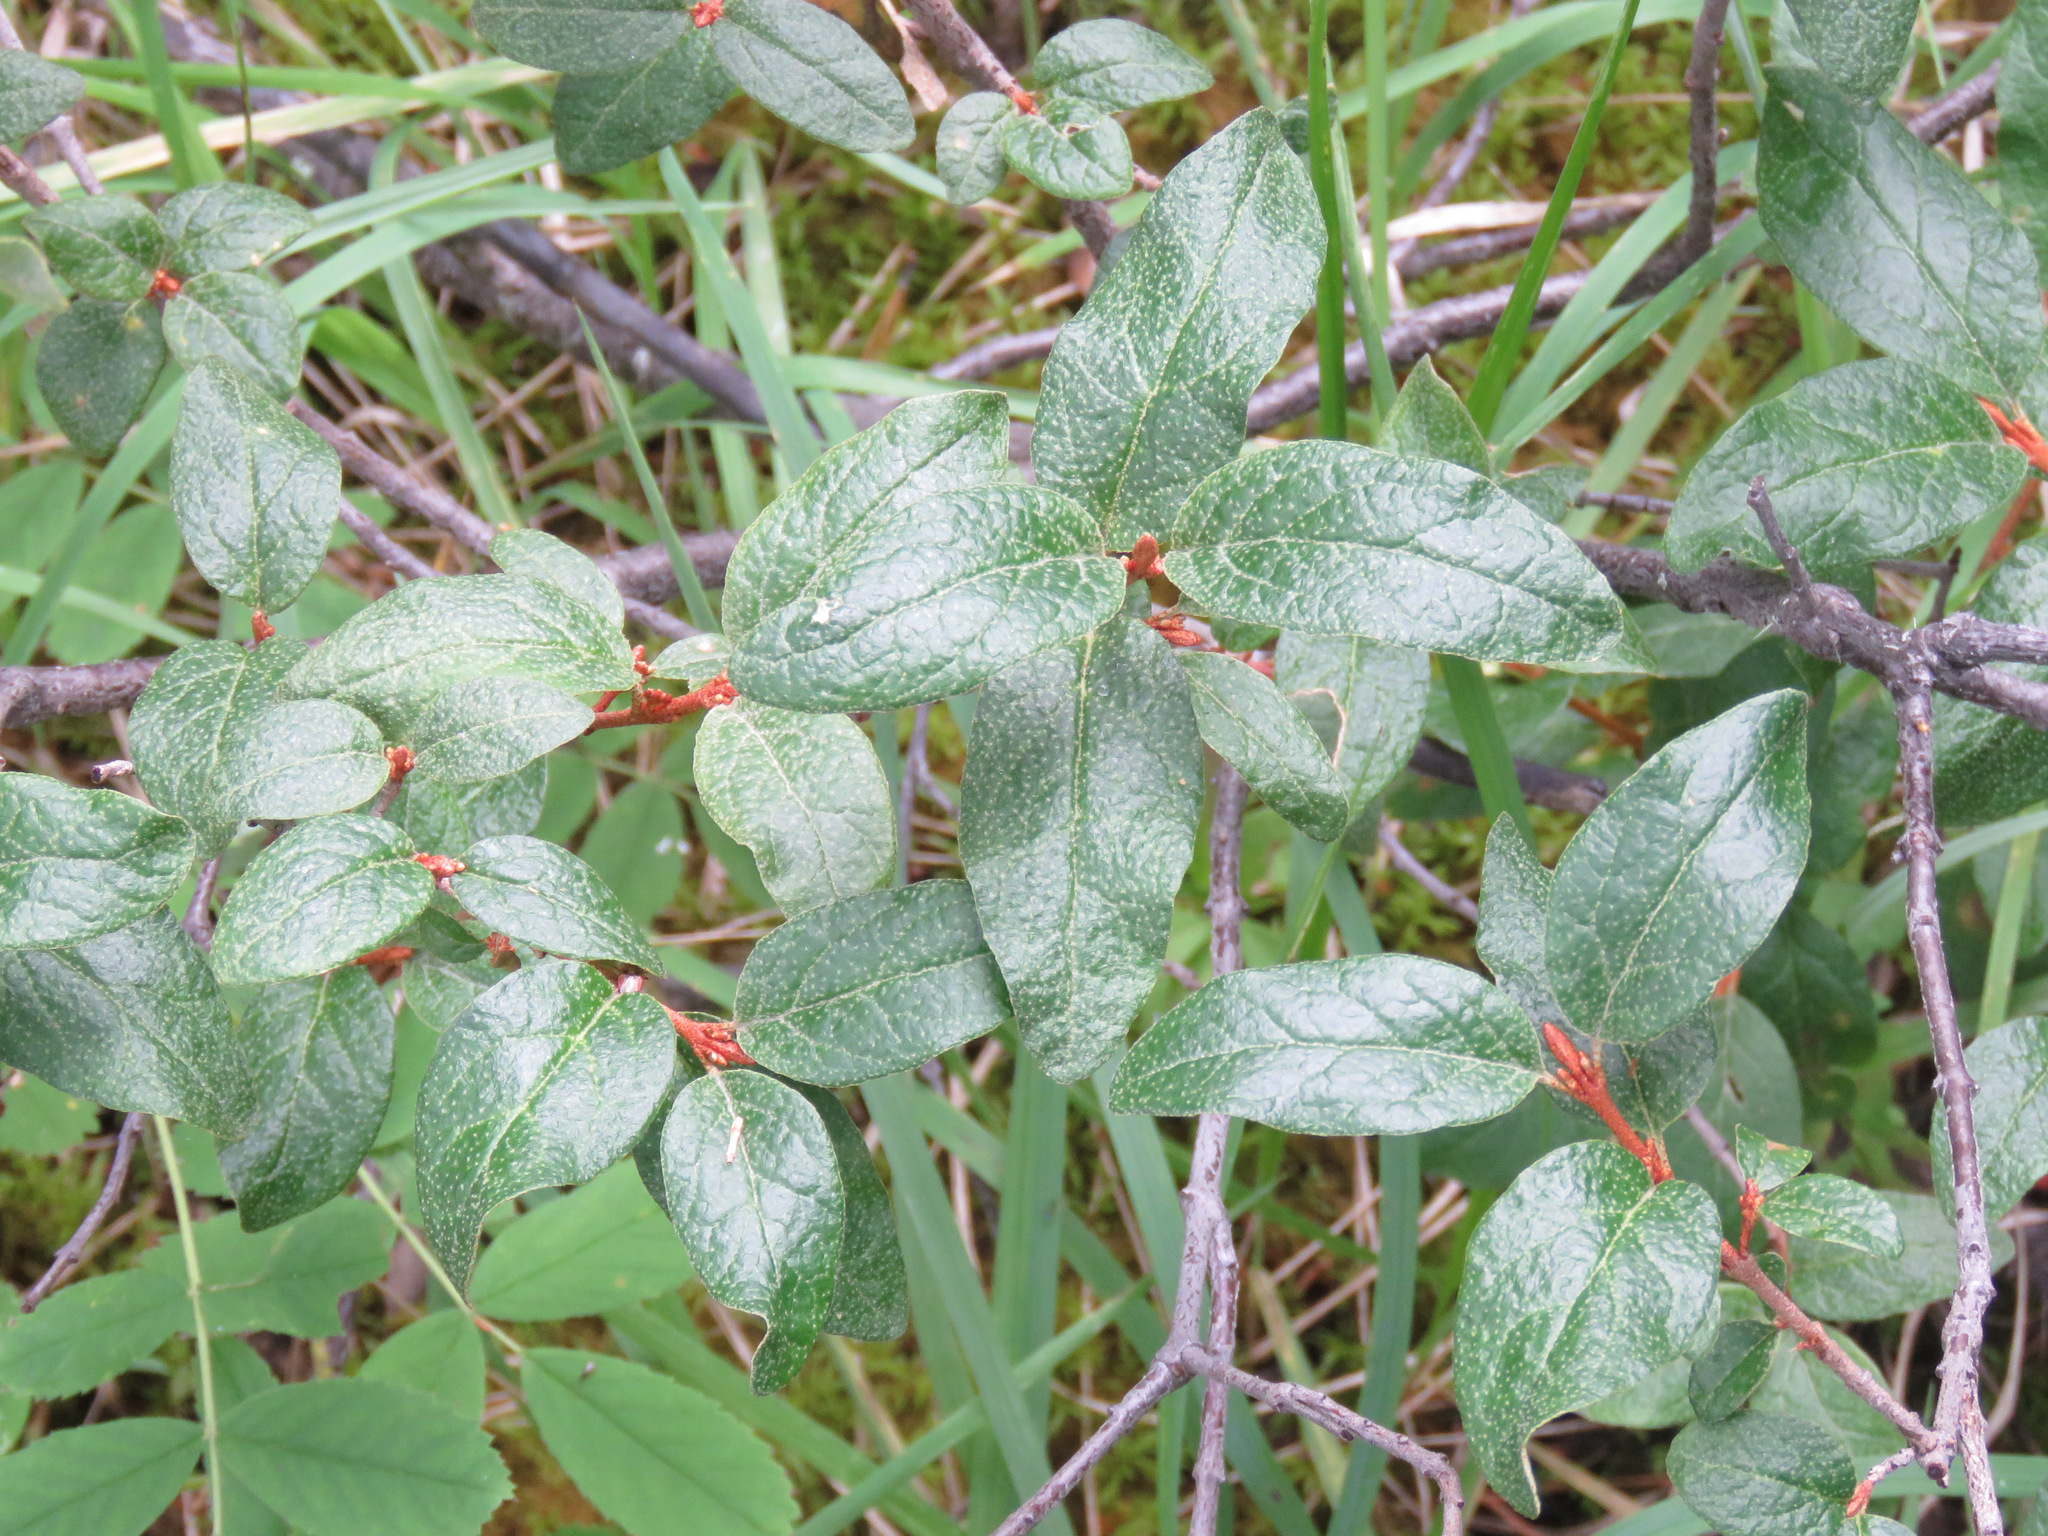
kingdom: Plantae
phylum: Tracheophyta
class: Magnoliopsida
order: Rosales
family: Elaeagnaceae
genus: Shepherdia
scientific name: Shepherdia canadensis
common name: Soapberry
